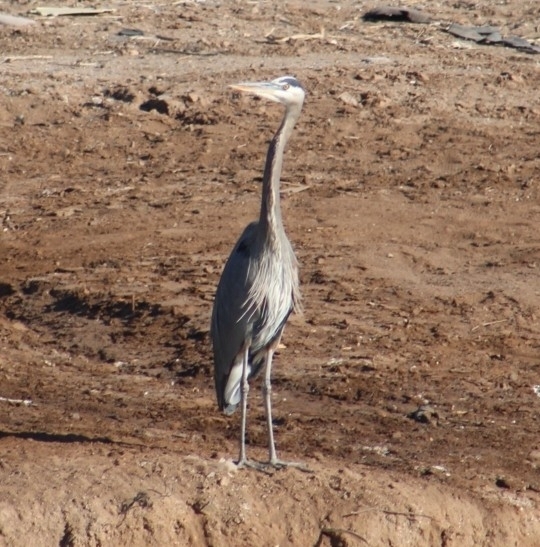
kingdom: Animalia
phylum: Chordata
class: Aves
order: Pelecaniformes
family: Ardeidae
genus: Ardea
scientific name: Ardea herodias
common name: Great blue heron
